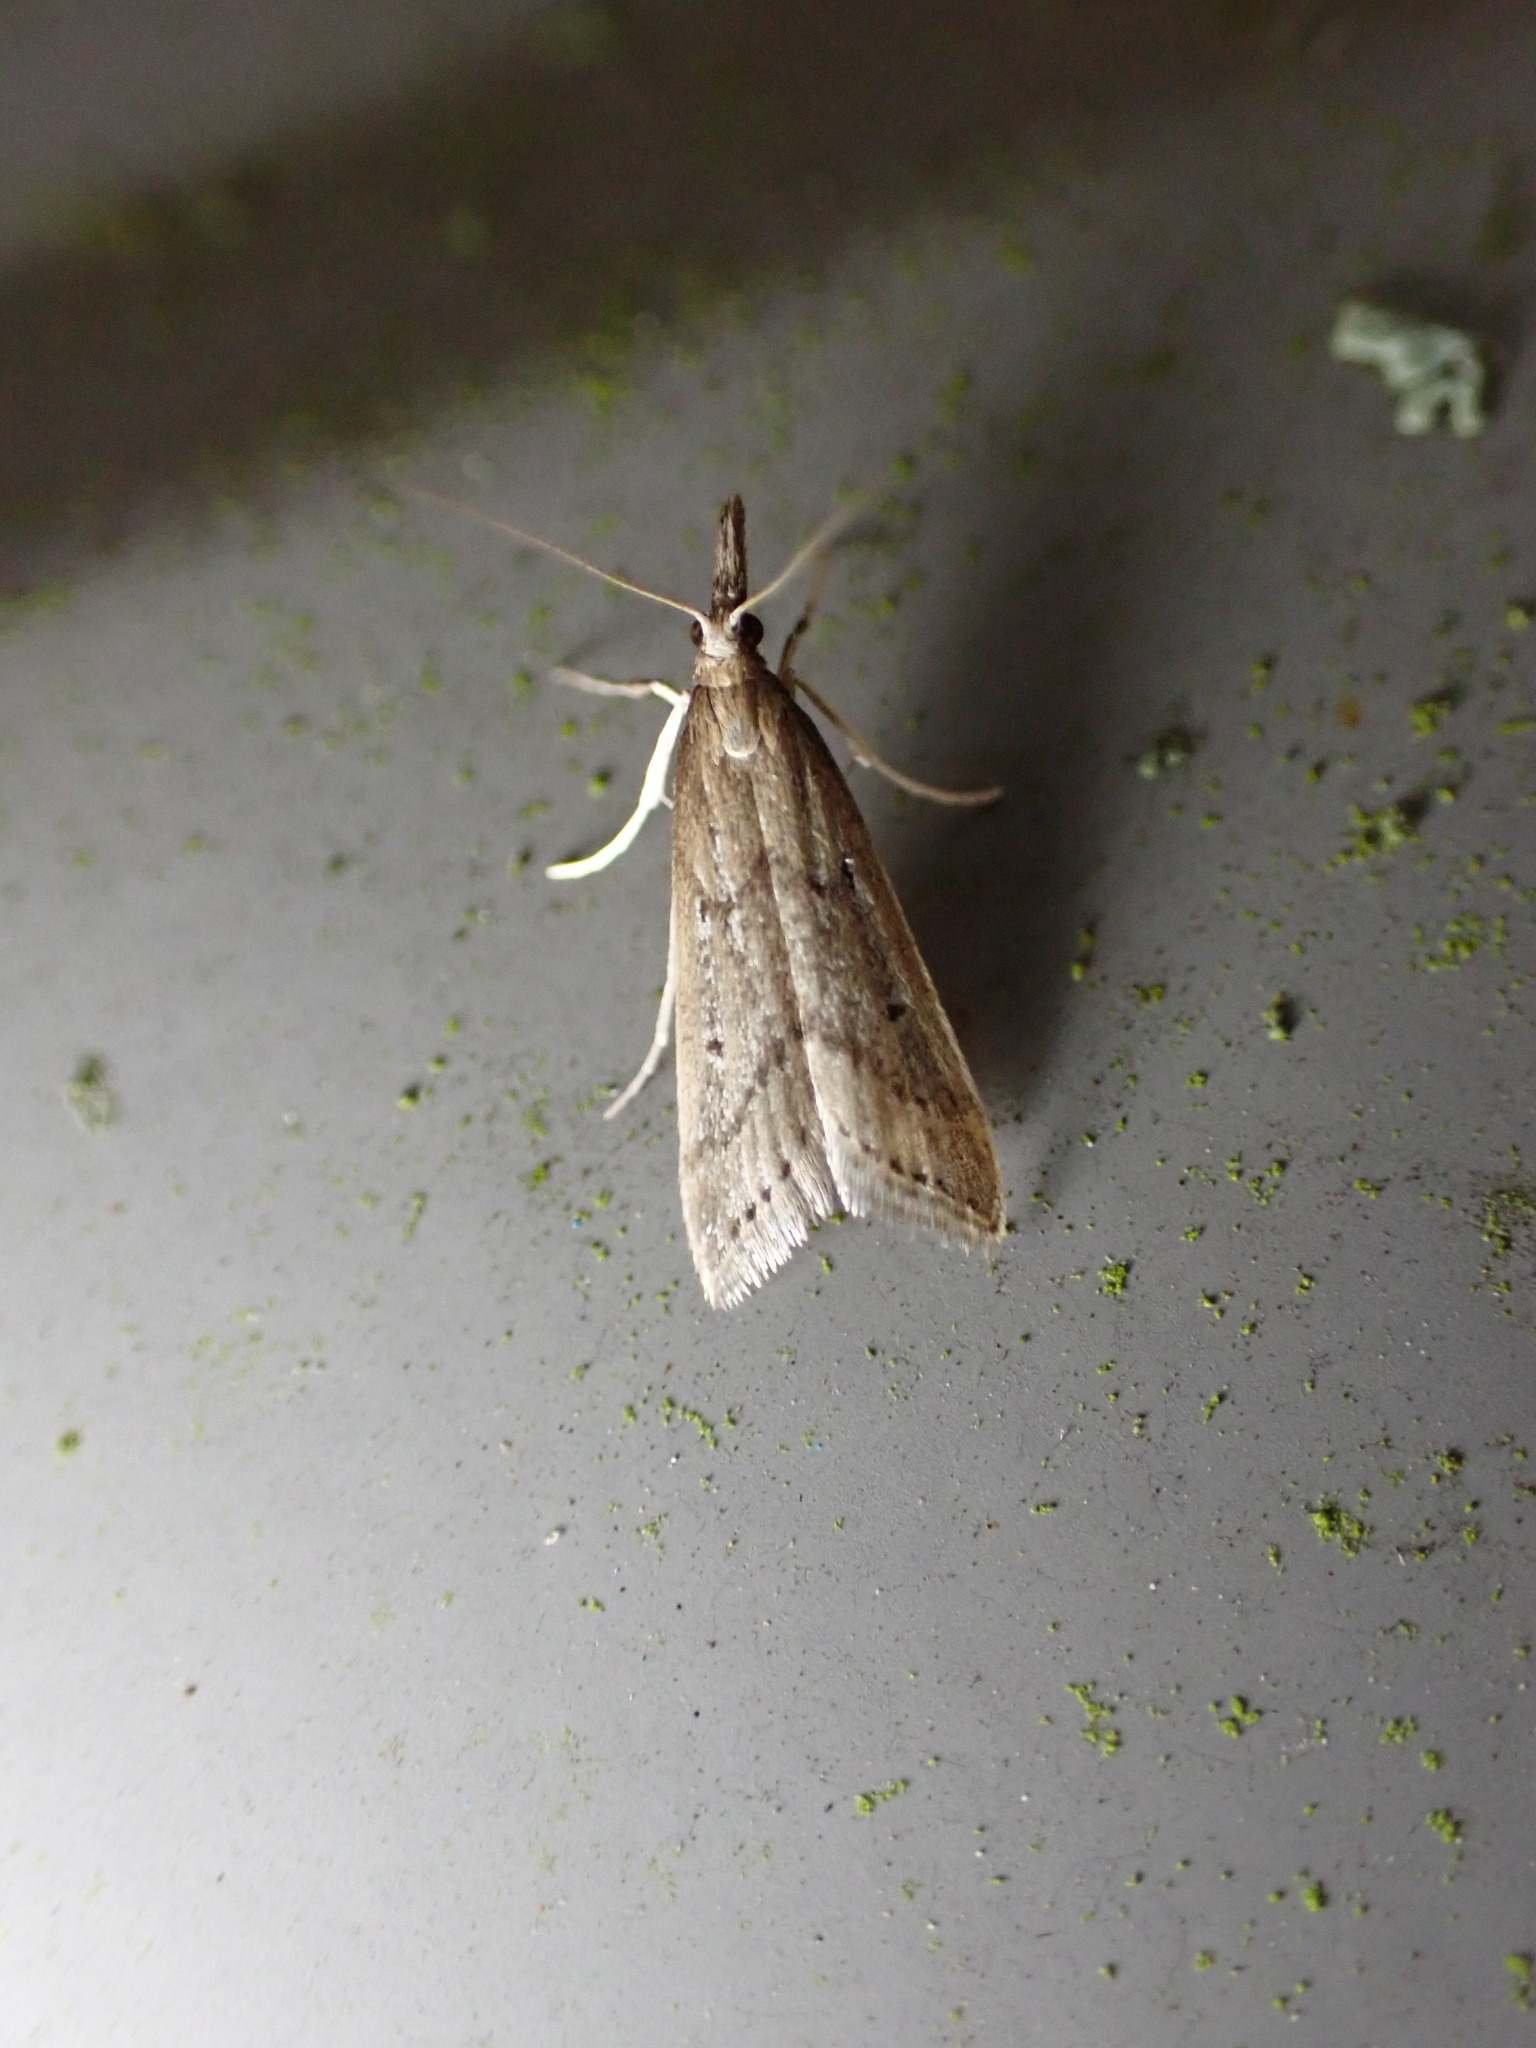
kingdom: Animalia
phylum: Arthropoda
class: Insecta
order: Lepidoptera
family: Crambidae
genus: Antiscopa
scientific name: Antiscopa elaphra
